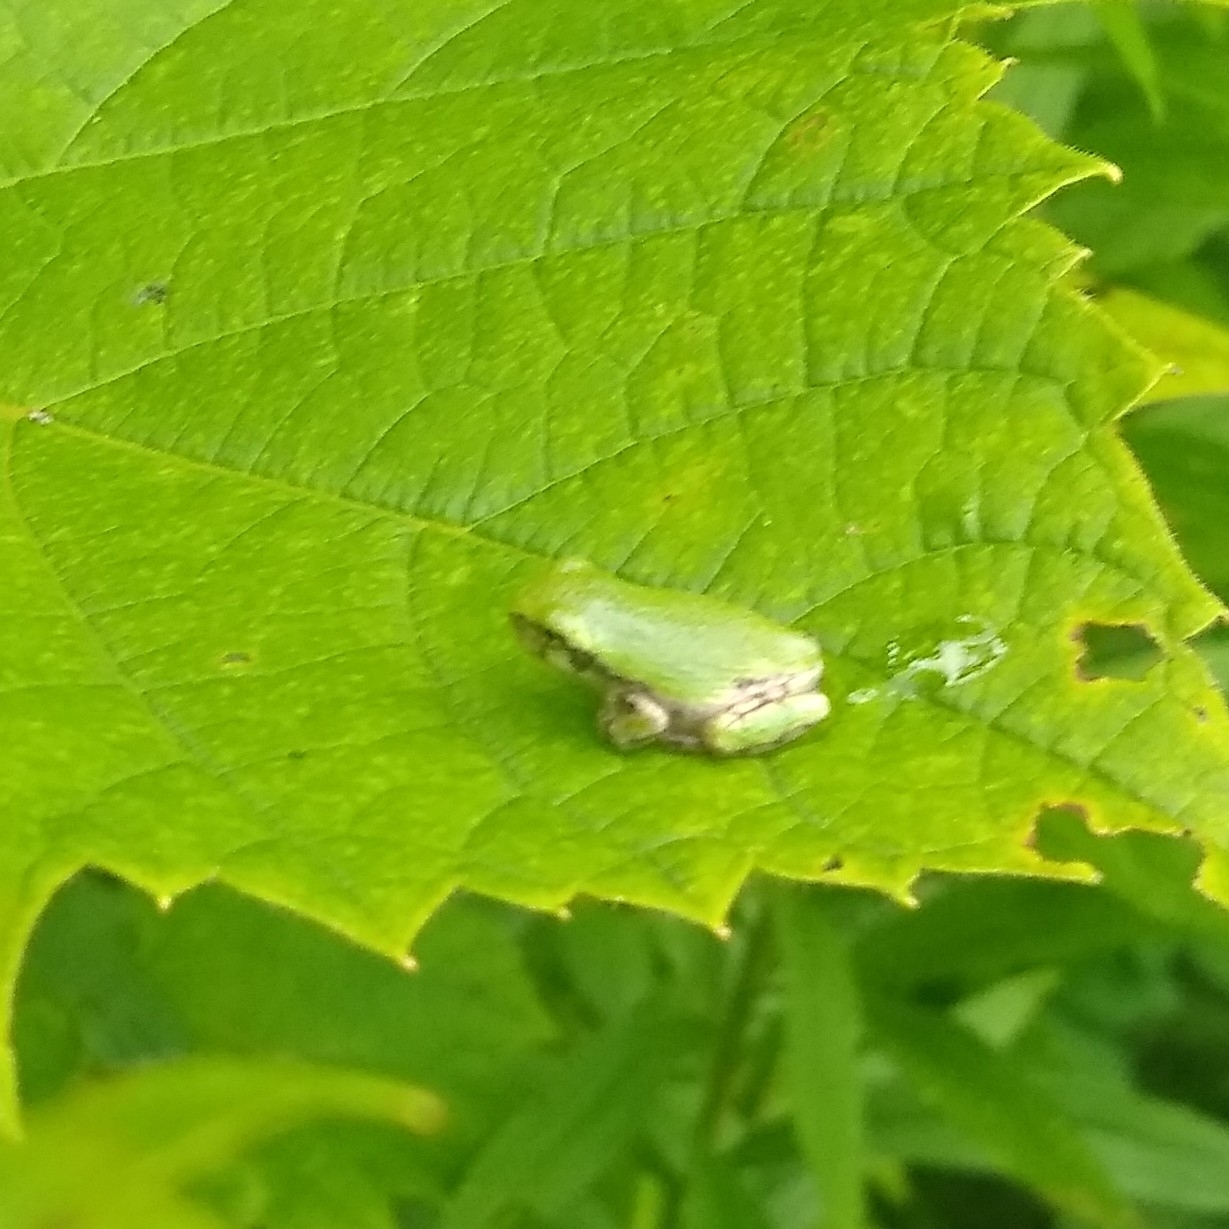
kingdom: Animalia
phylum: Chordata
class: Amphibia
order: Anura
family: Hylidae
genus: Dryophytes
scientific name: Dryophytes versicolor
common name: Gray treefrog
